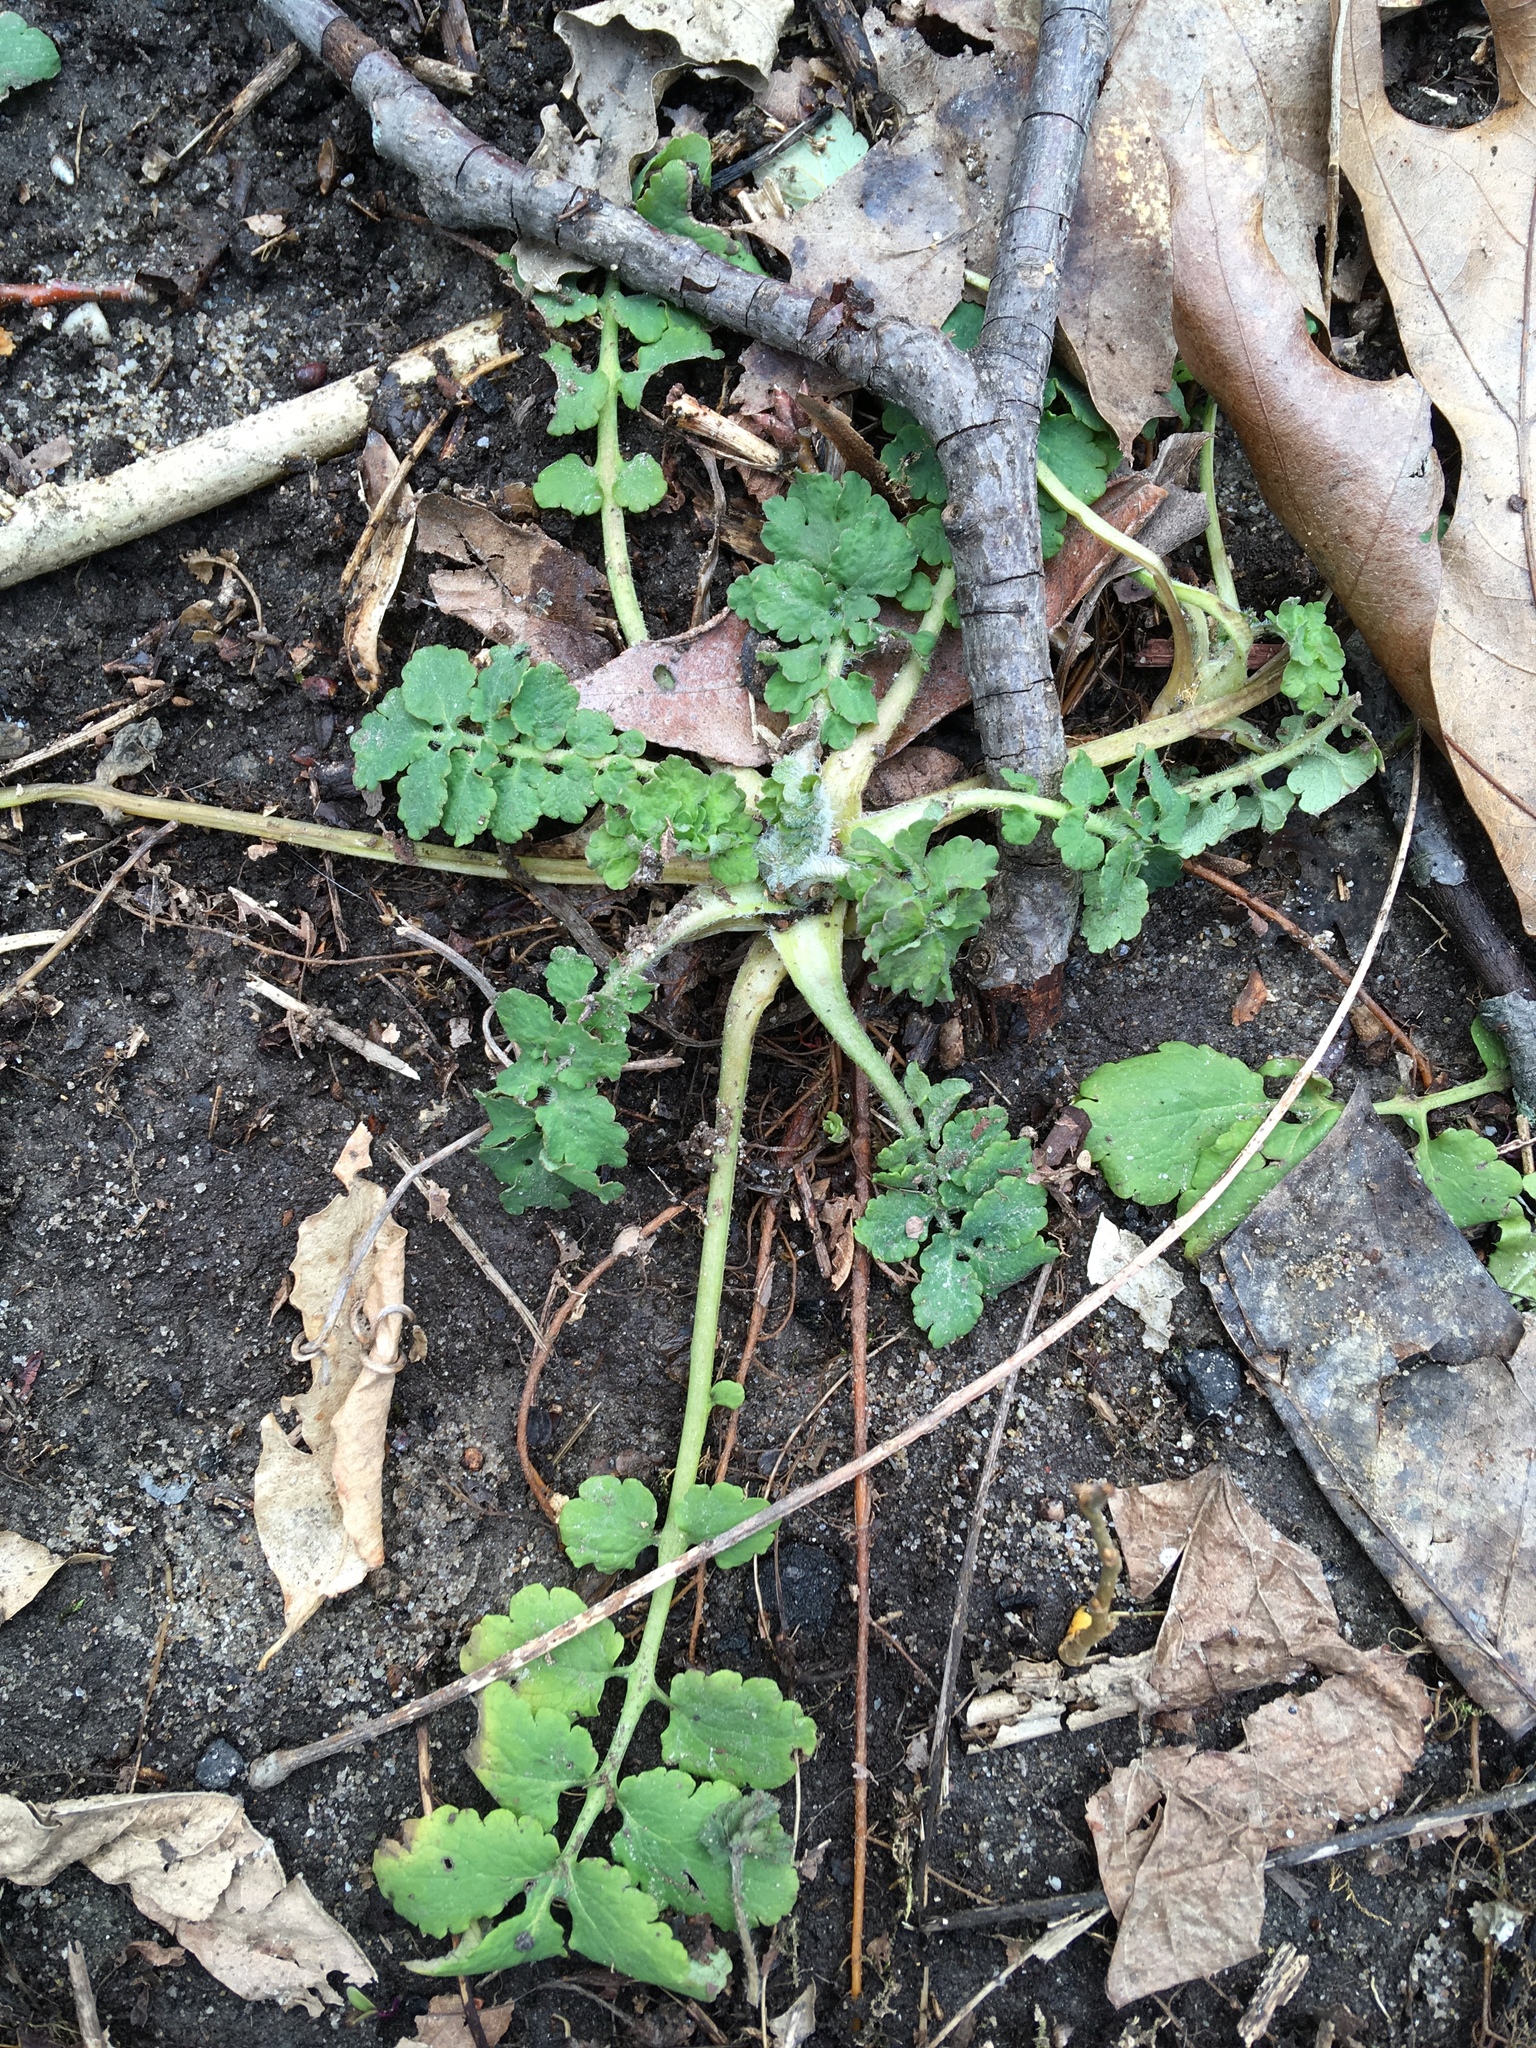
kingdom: Plantae
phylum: Tracheophyta
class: Magnoliopsida
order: Ranunculales
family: Papaveraceae
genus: Chelidonium
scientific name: Chelidonium majus
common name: Greater celandine
